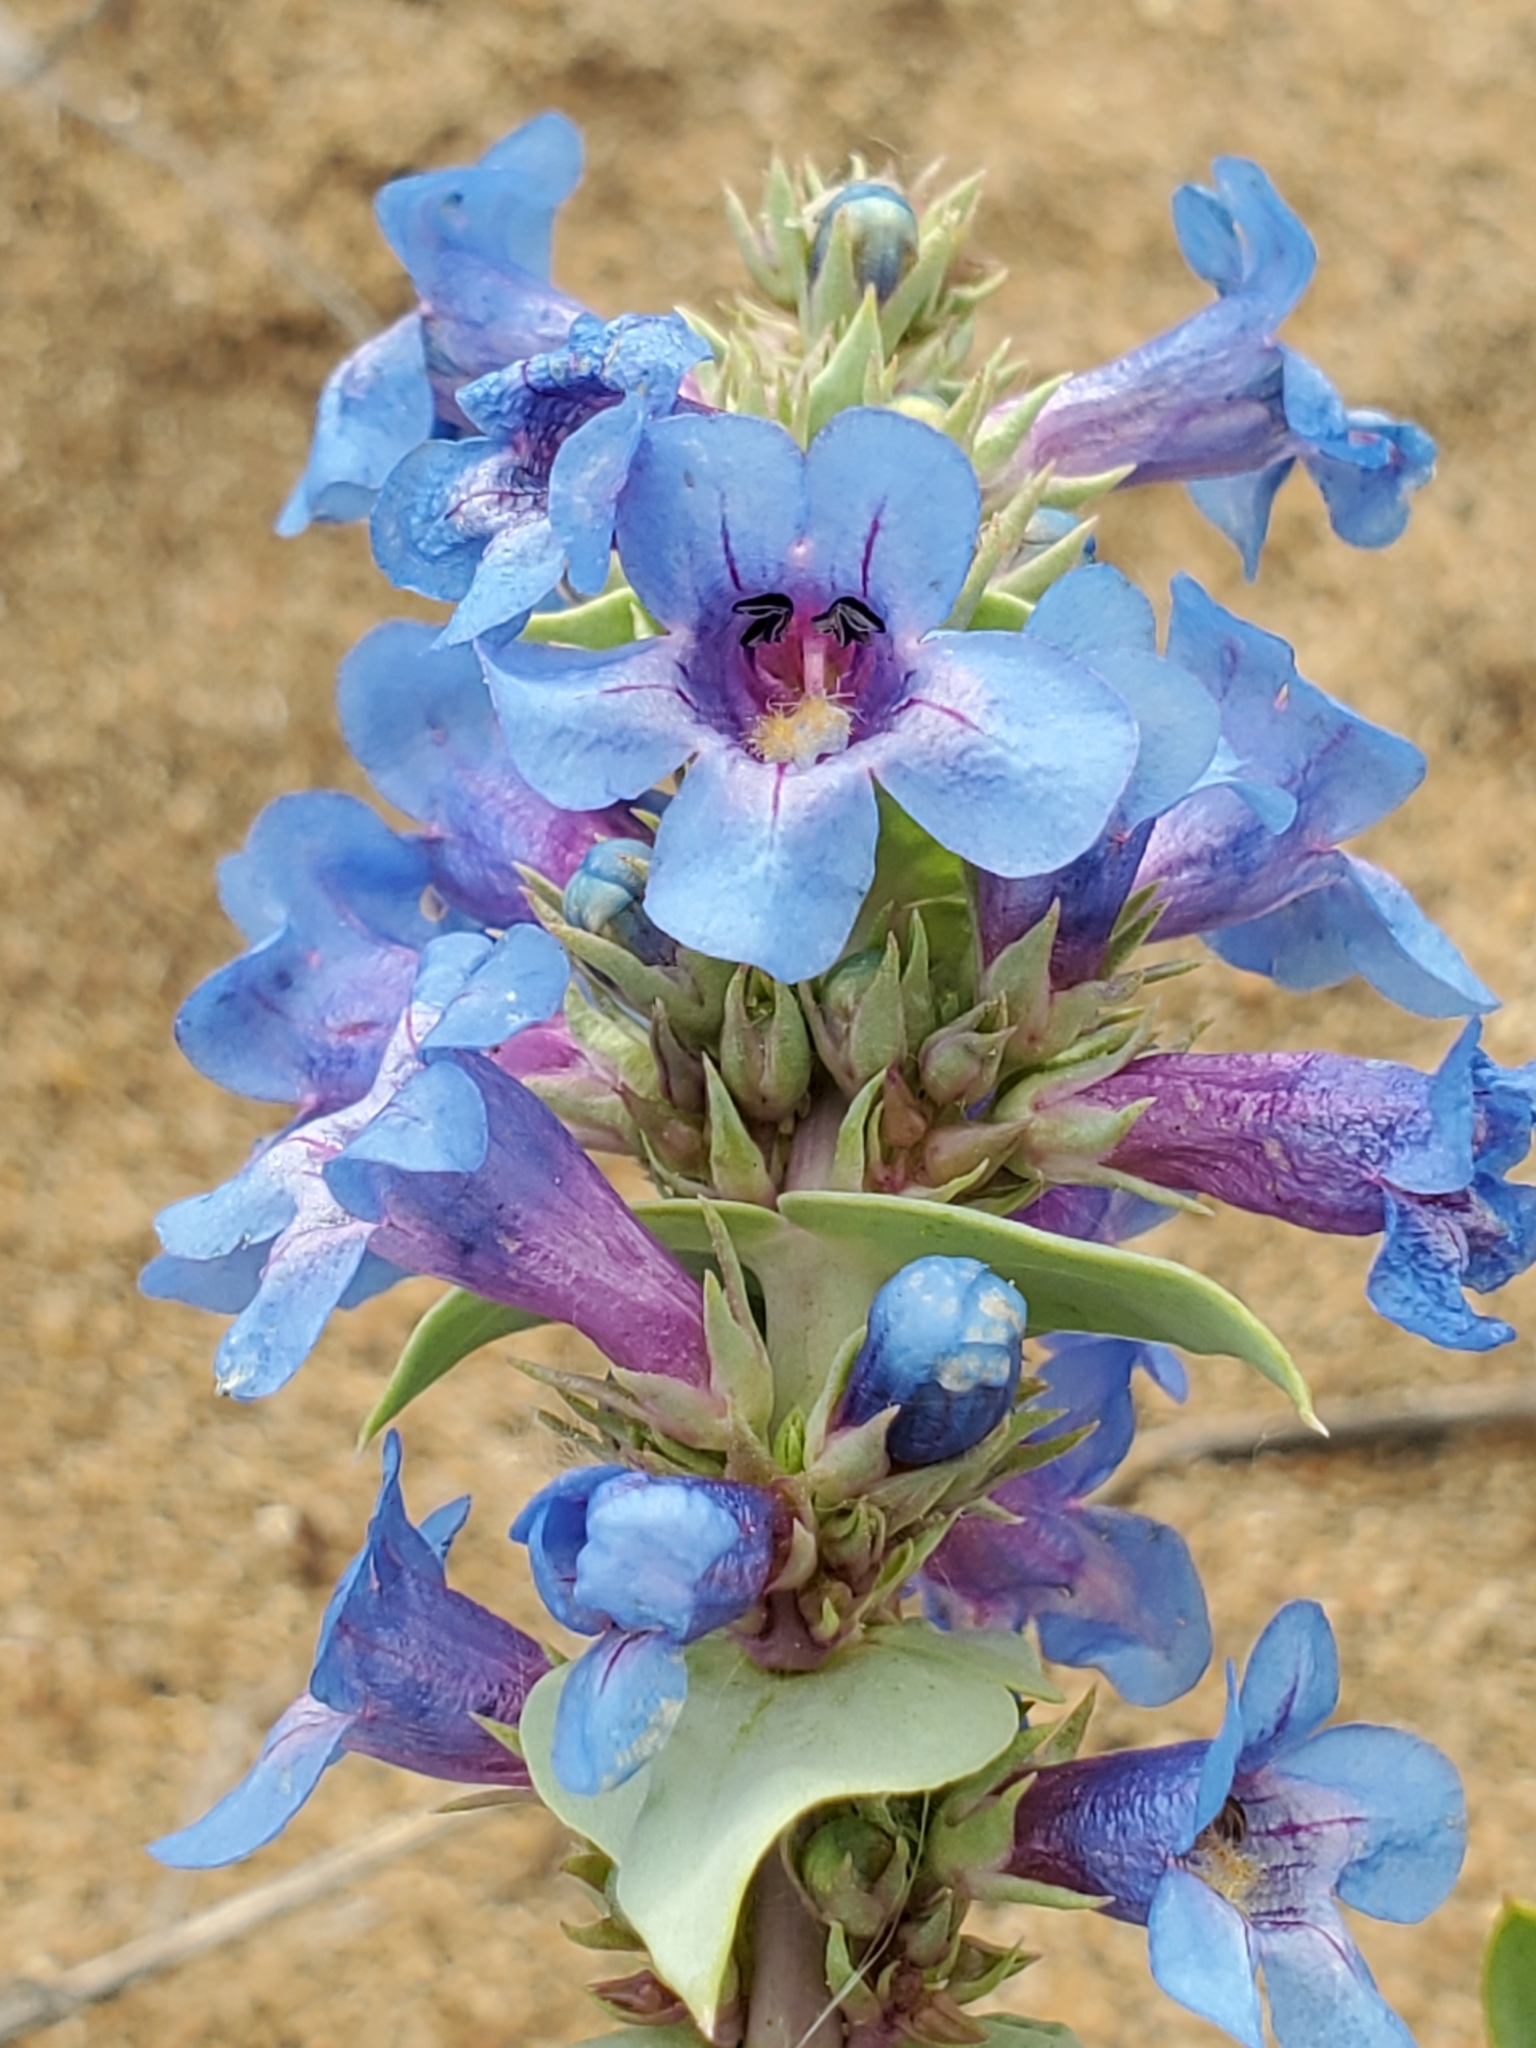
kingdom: Plantae
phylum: Tracheophyta
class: Magnoliopsida
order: Lamiales
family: Plantaginaceae
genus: Penstemon
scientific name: Penstemon nitidus
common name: Shining penstemon
